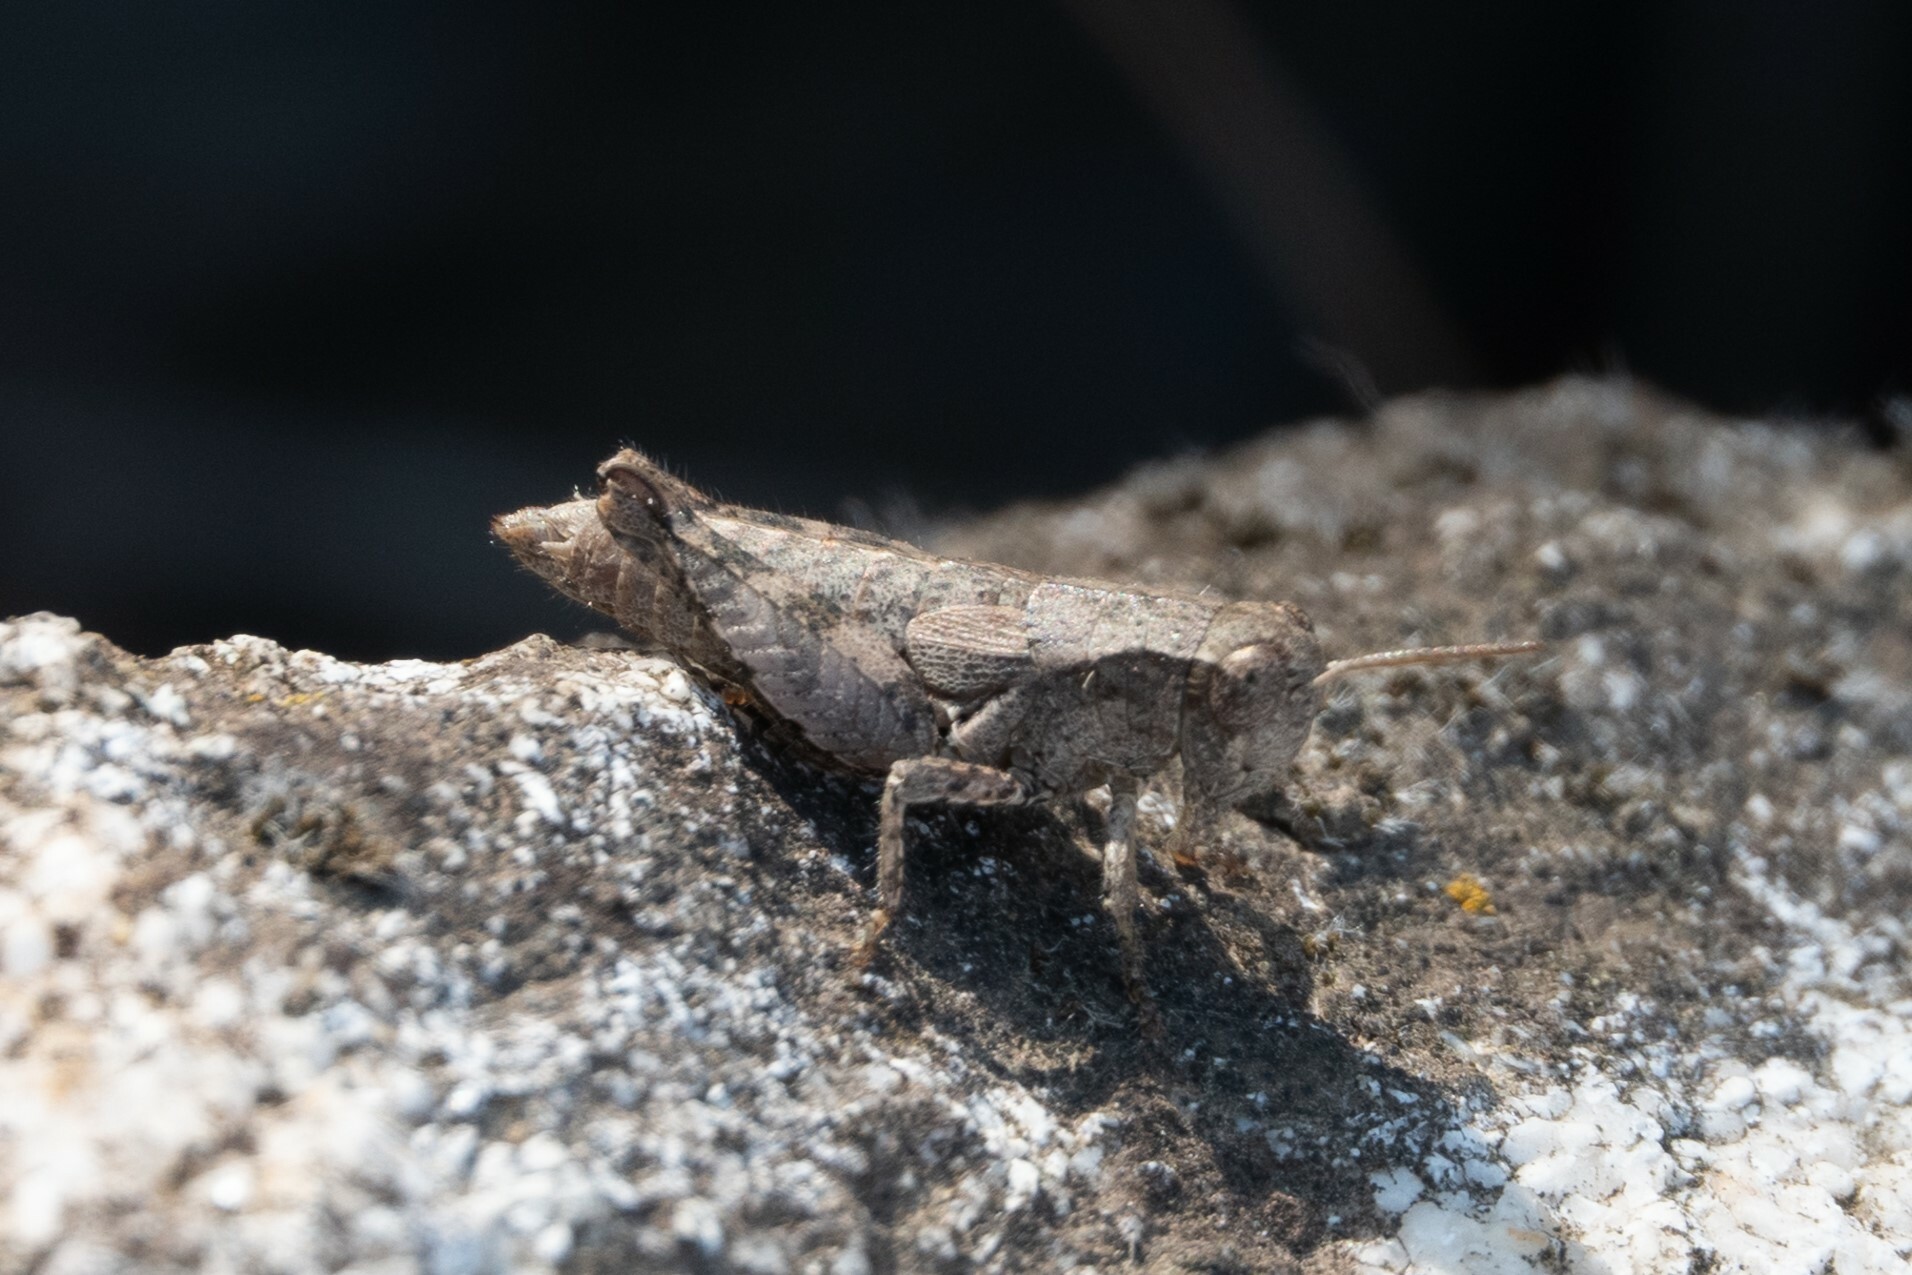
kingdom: Animalia
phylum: Arthropoda
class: Insecta
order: Orthoptera
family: Acrididae
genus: Pezotettix
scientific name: Pezotettix giornae
